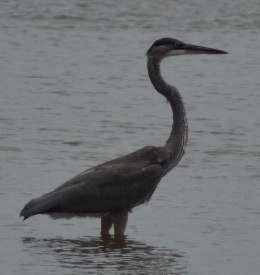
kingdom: Animalia
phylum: Chordata
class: Aves
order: Pelecaniformes
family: Ardeidae
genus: Ardea
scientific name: Ardea herodias
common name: Great blue heron
